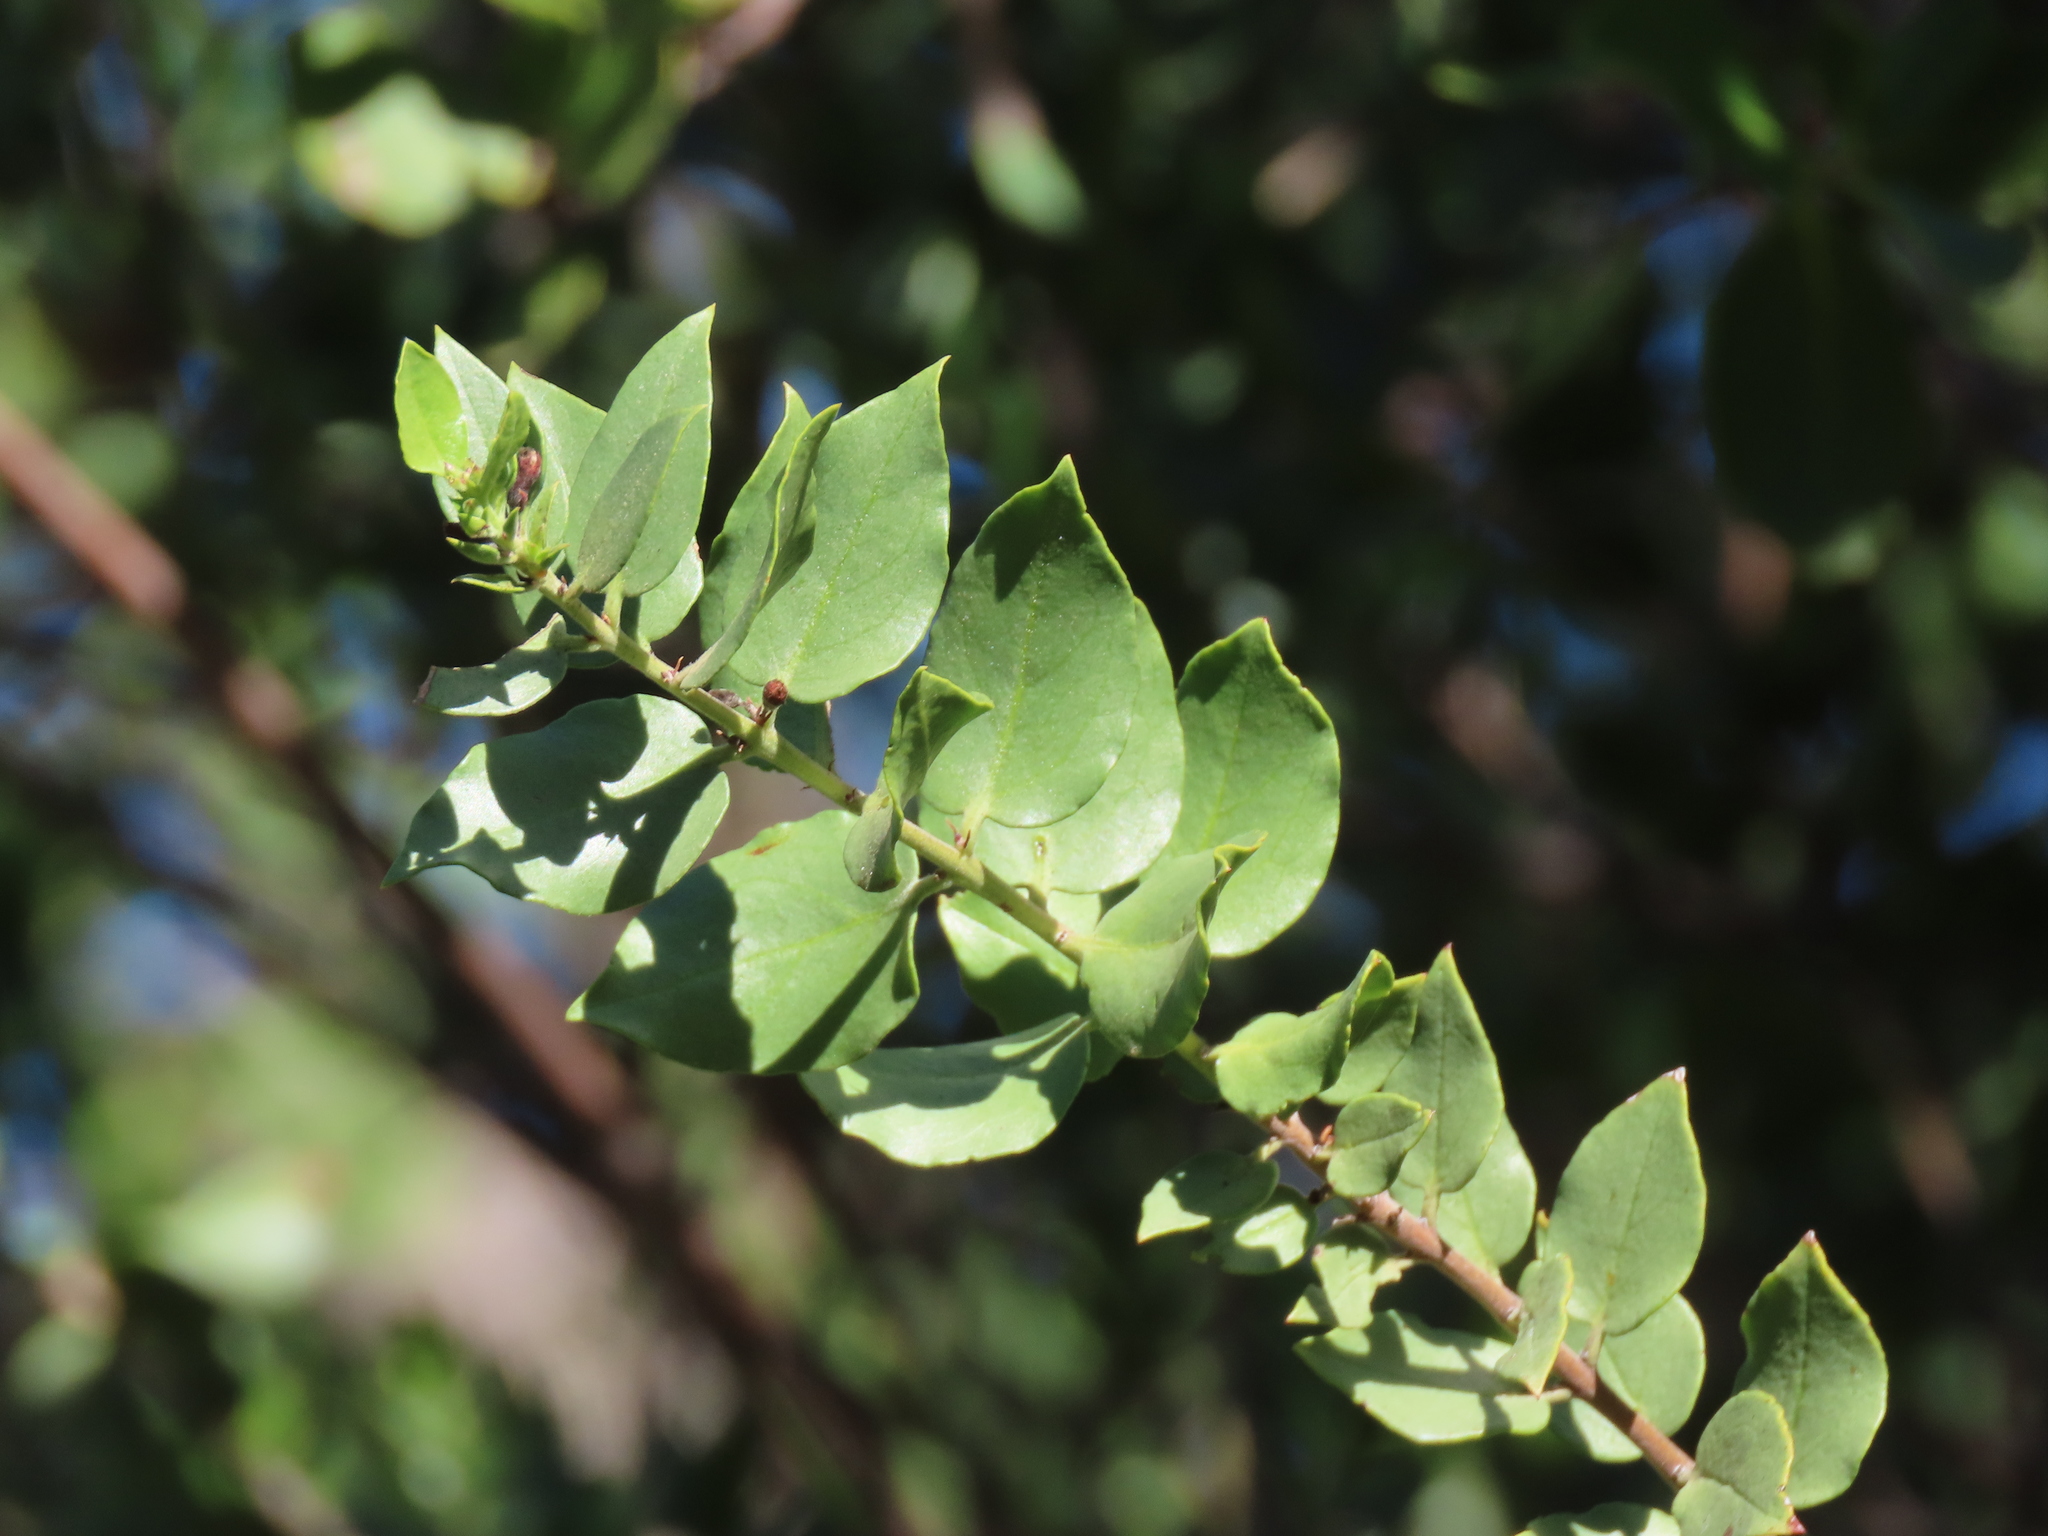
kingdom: Plantae
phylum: Tracheophyta
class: Magnoliopsida
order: Lamiales
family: Plantaginaceae
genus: Monttea
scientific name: Monttea chilensis
